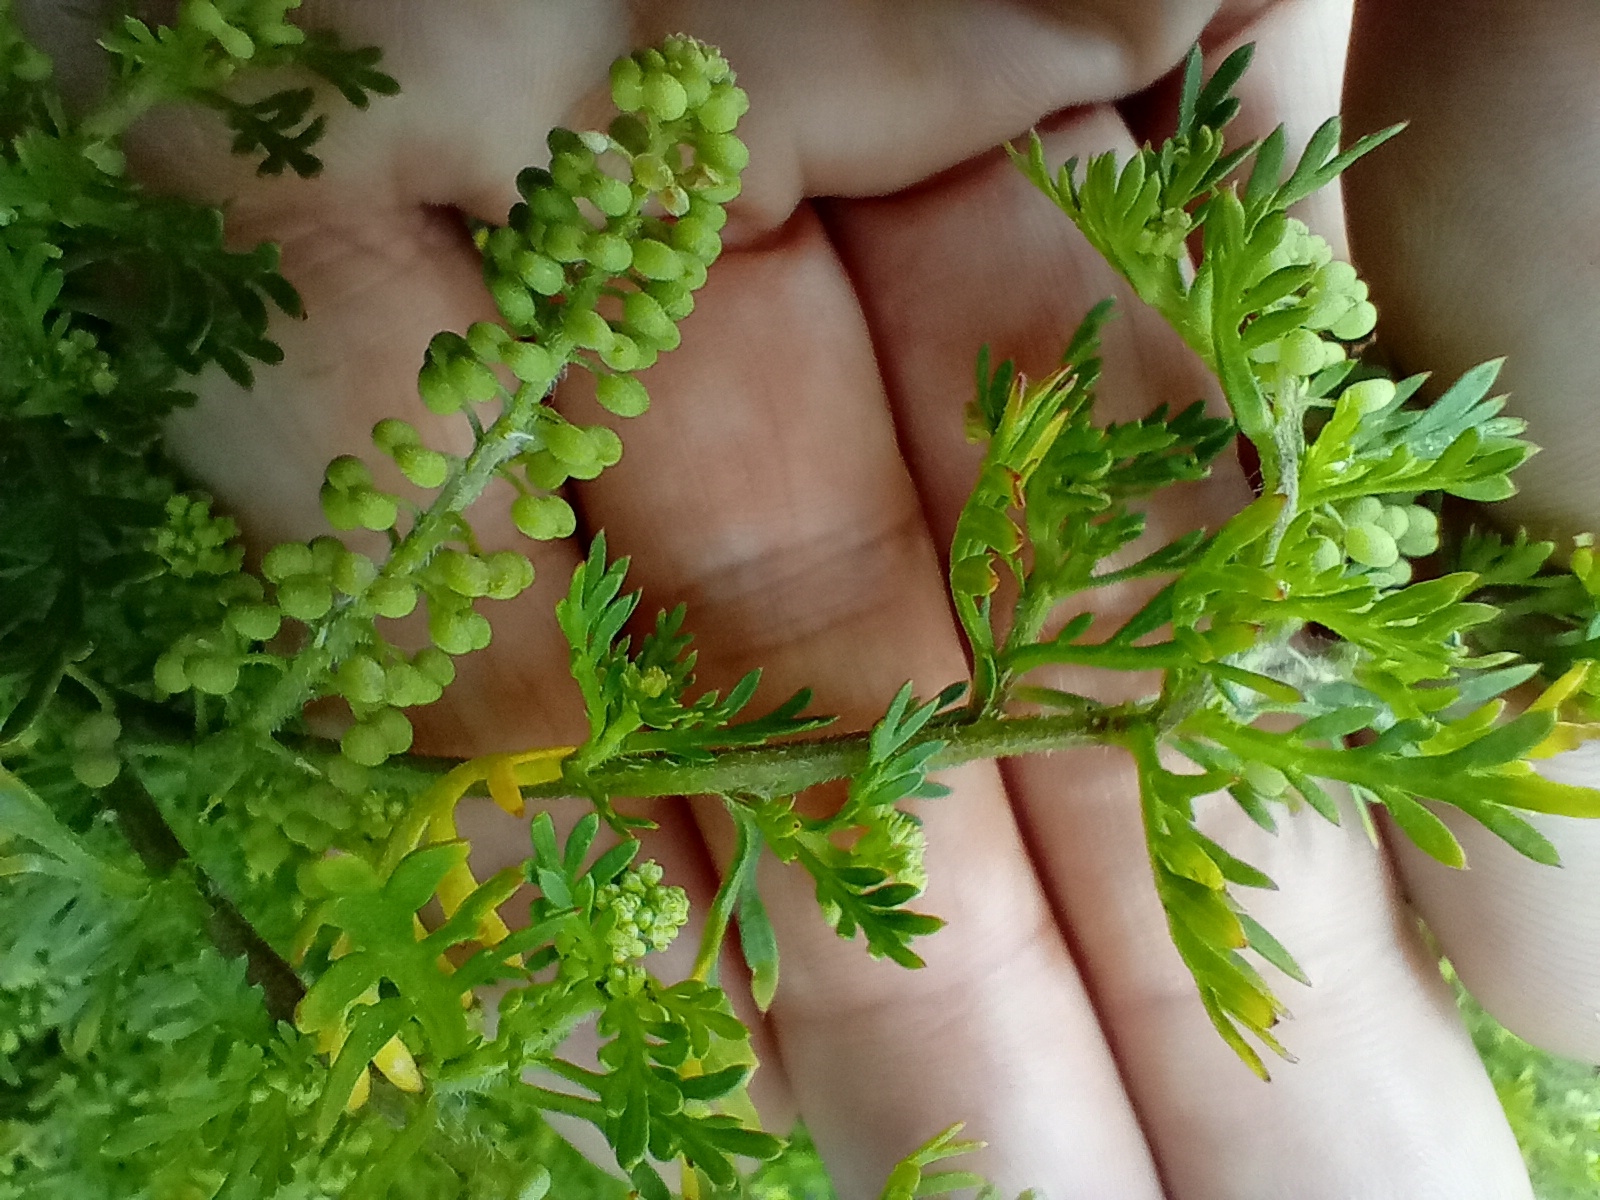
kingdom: Plantae
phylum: Tracheophyta
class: Magnoliopsida
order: Brassicales
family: Brassicaceae
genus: Lepidium
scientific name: Lepidium didymum
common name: Lesser swinecress
